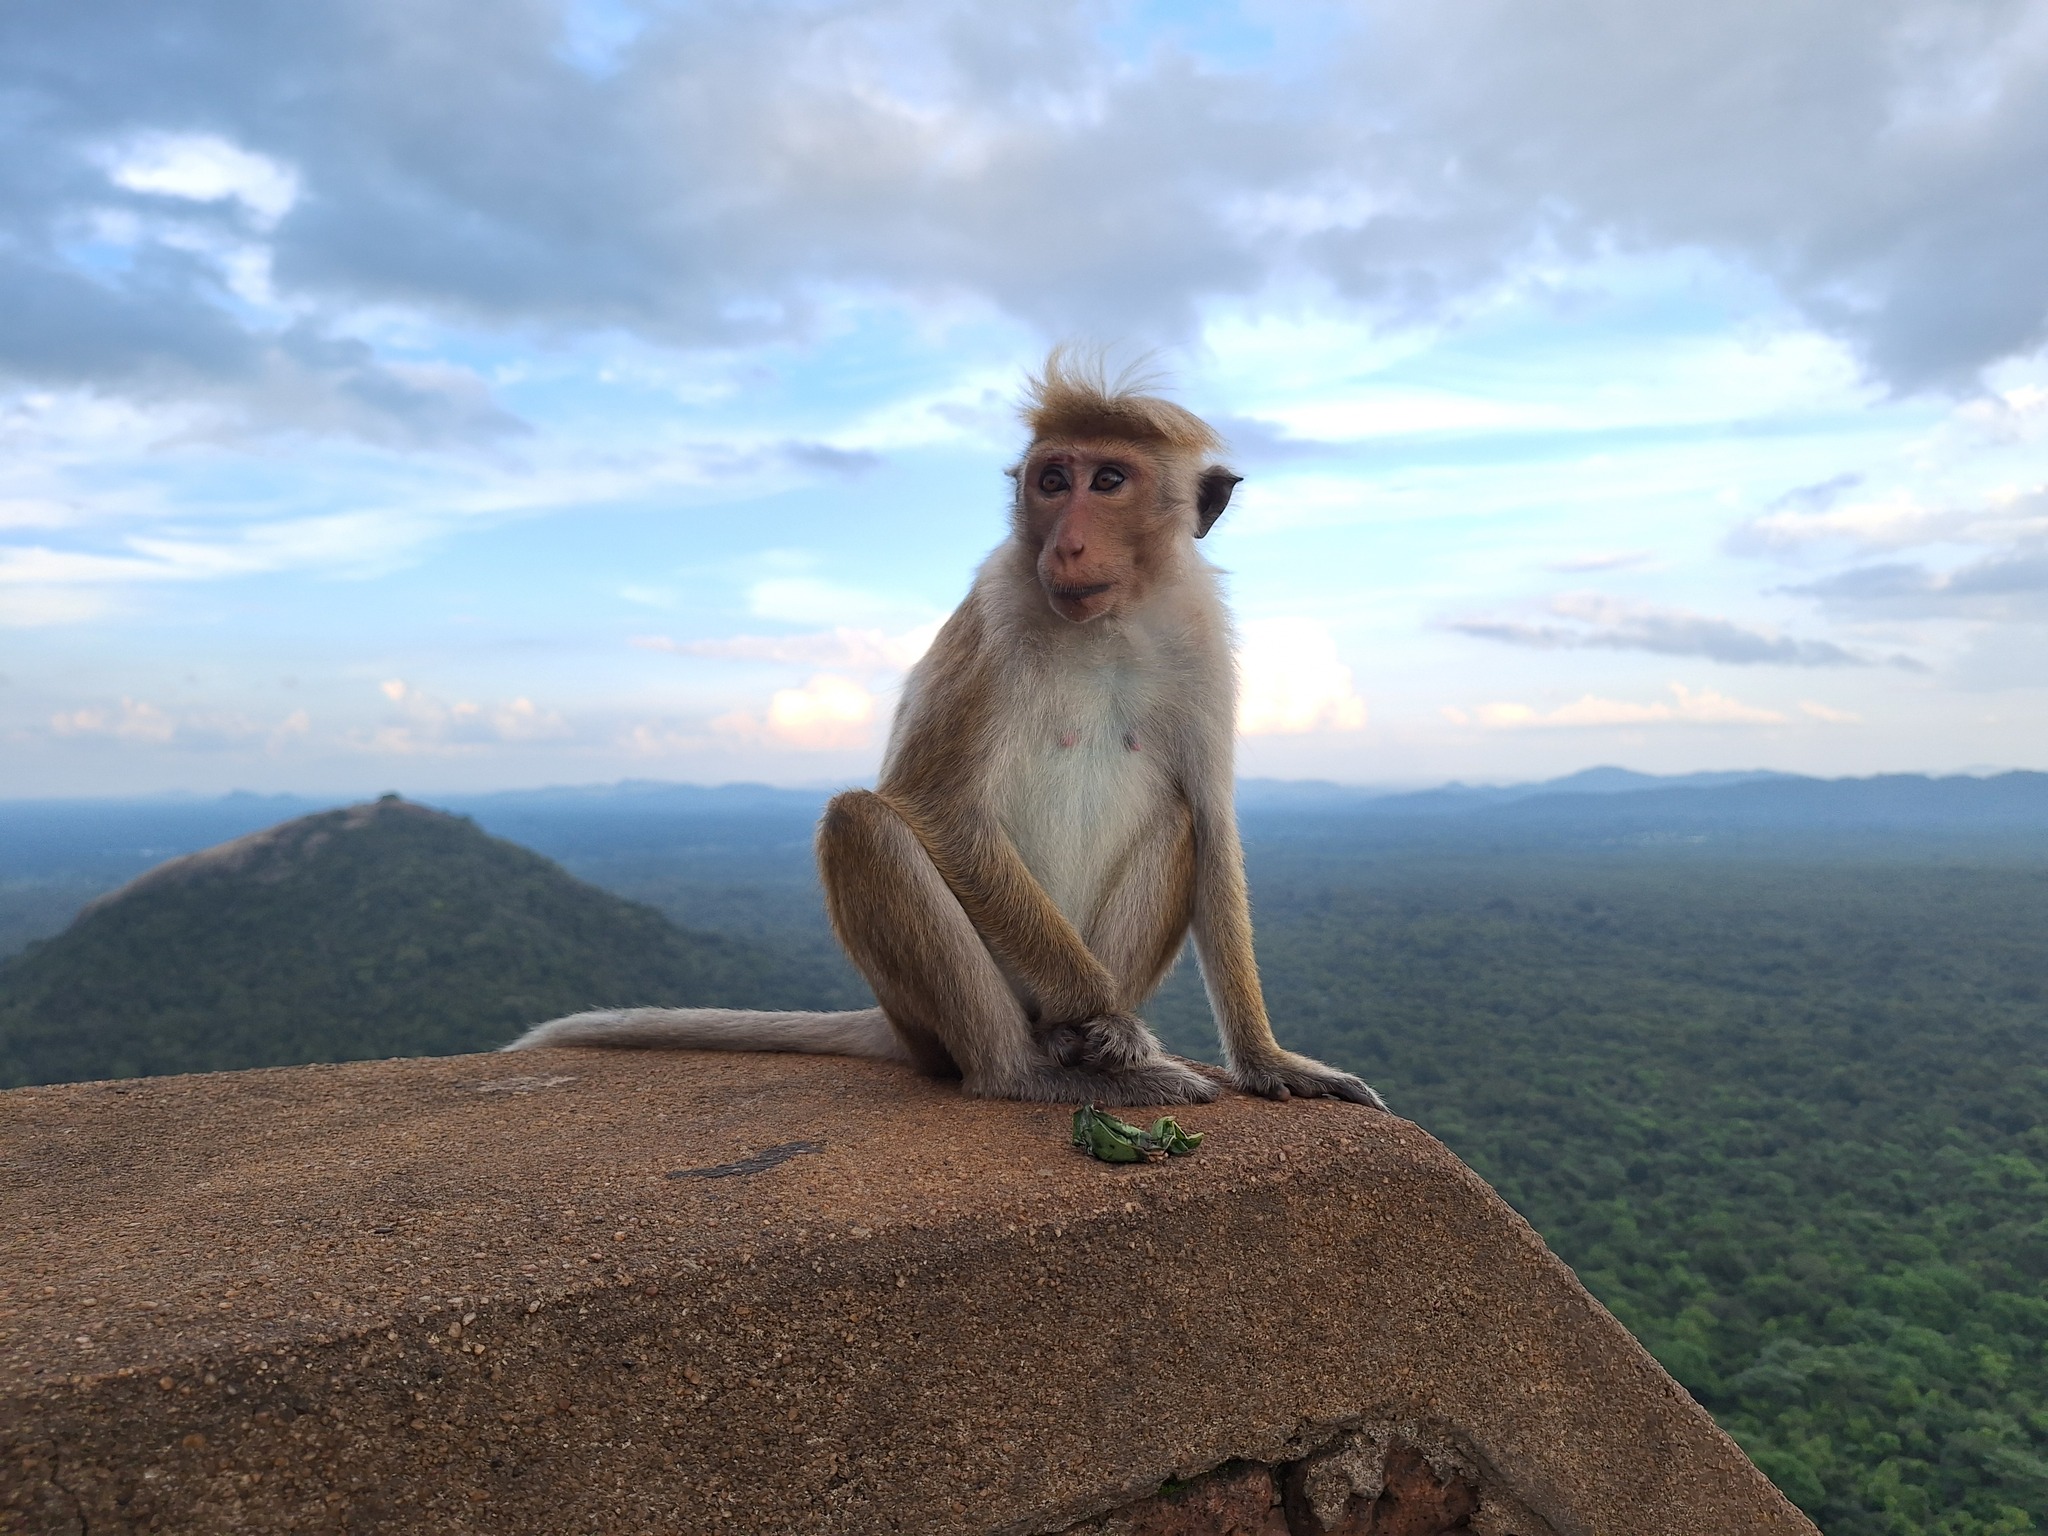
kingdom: Animalia
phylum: Chordata
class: Mammalia
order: Primates
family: Cercopithecidae
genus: Macaca
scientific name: Macaca sinica
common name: Toque macaque
